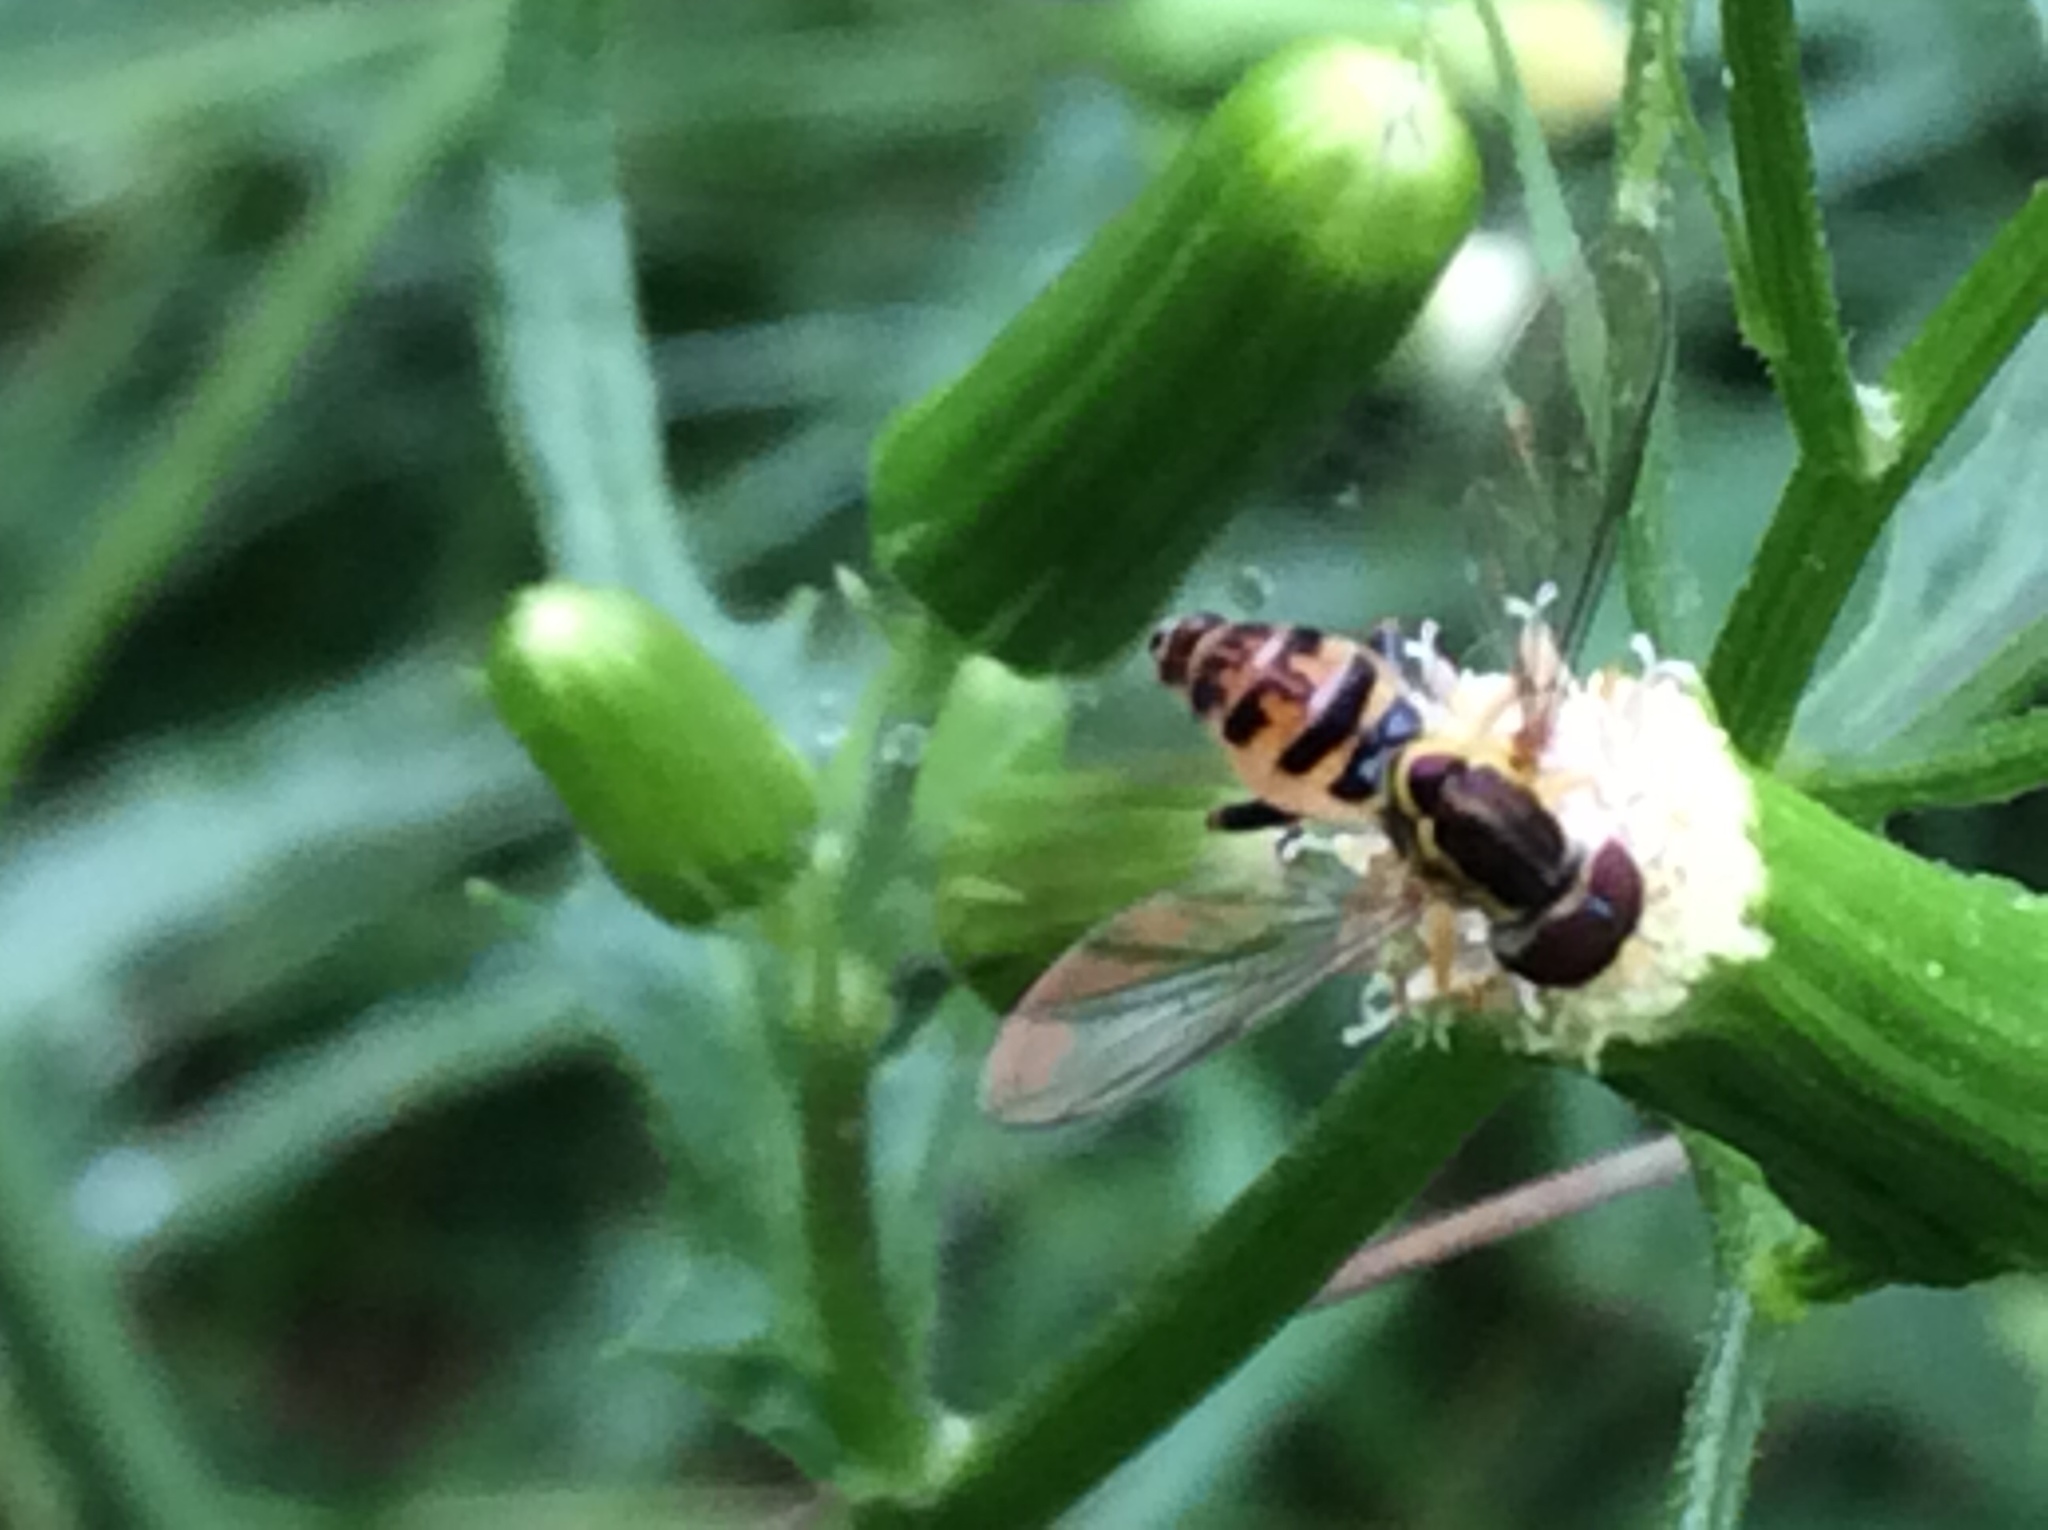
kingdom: Animalia
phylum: Arthropoda
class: Insecta
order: Diptera
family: Syrphidae
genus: Toxomerus
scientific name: Toxomerus geminatus
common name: Eastern calligrapher
